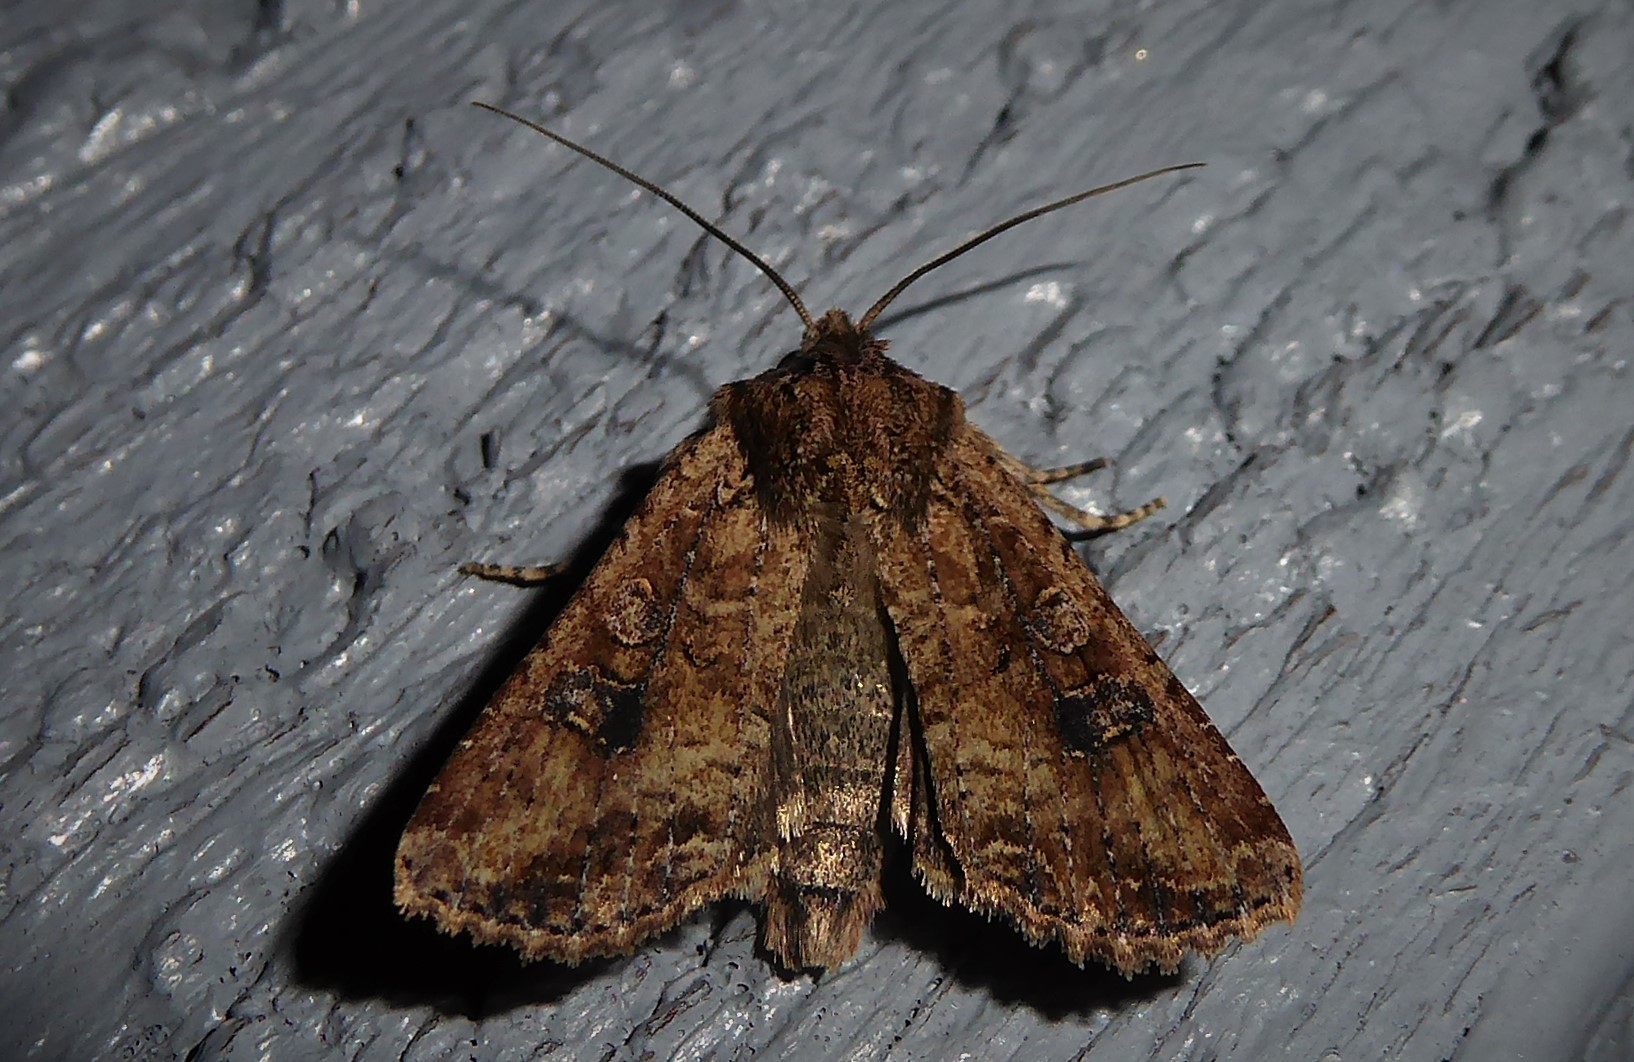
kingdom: Animalia
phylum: Arthropoda
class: Insecta
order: Lepidoptera
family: Noctuidae
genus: Ichneutica
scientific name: Ichneutica morosa
